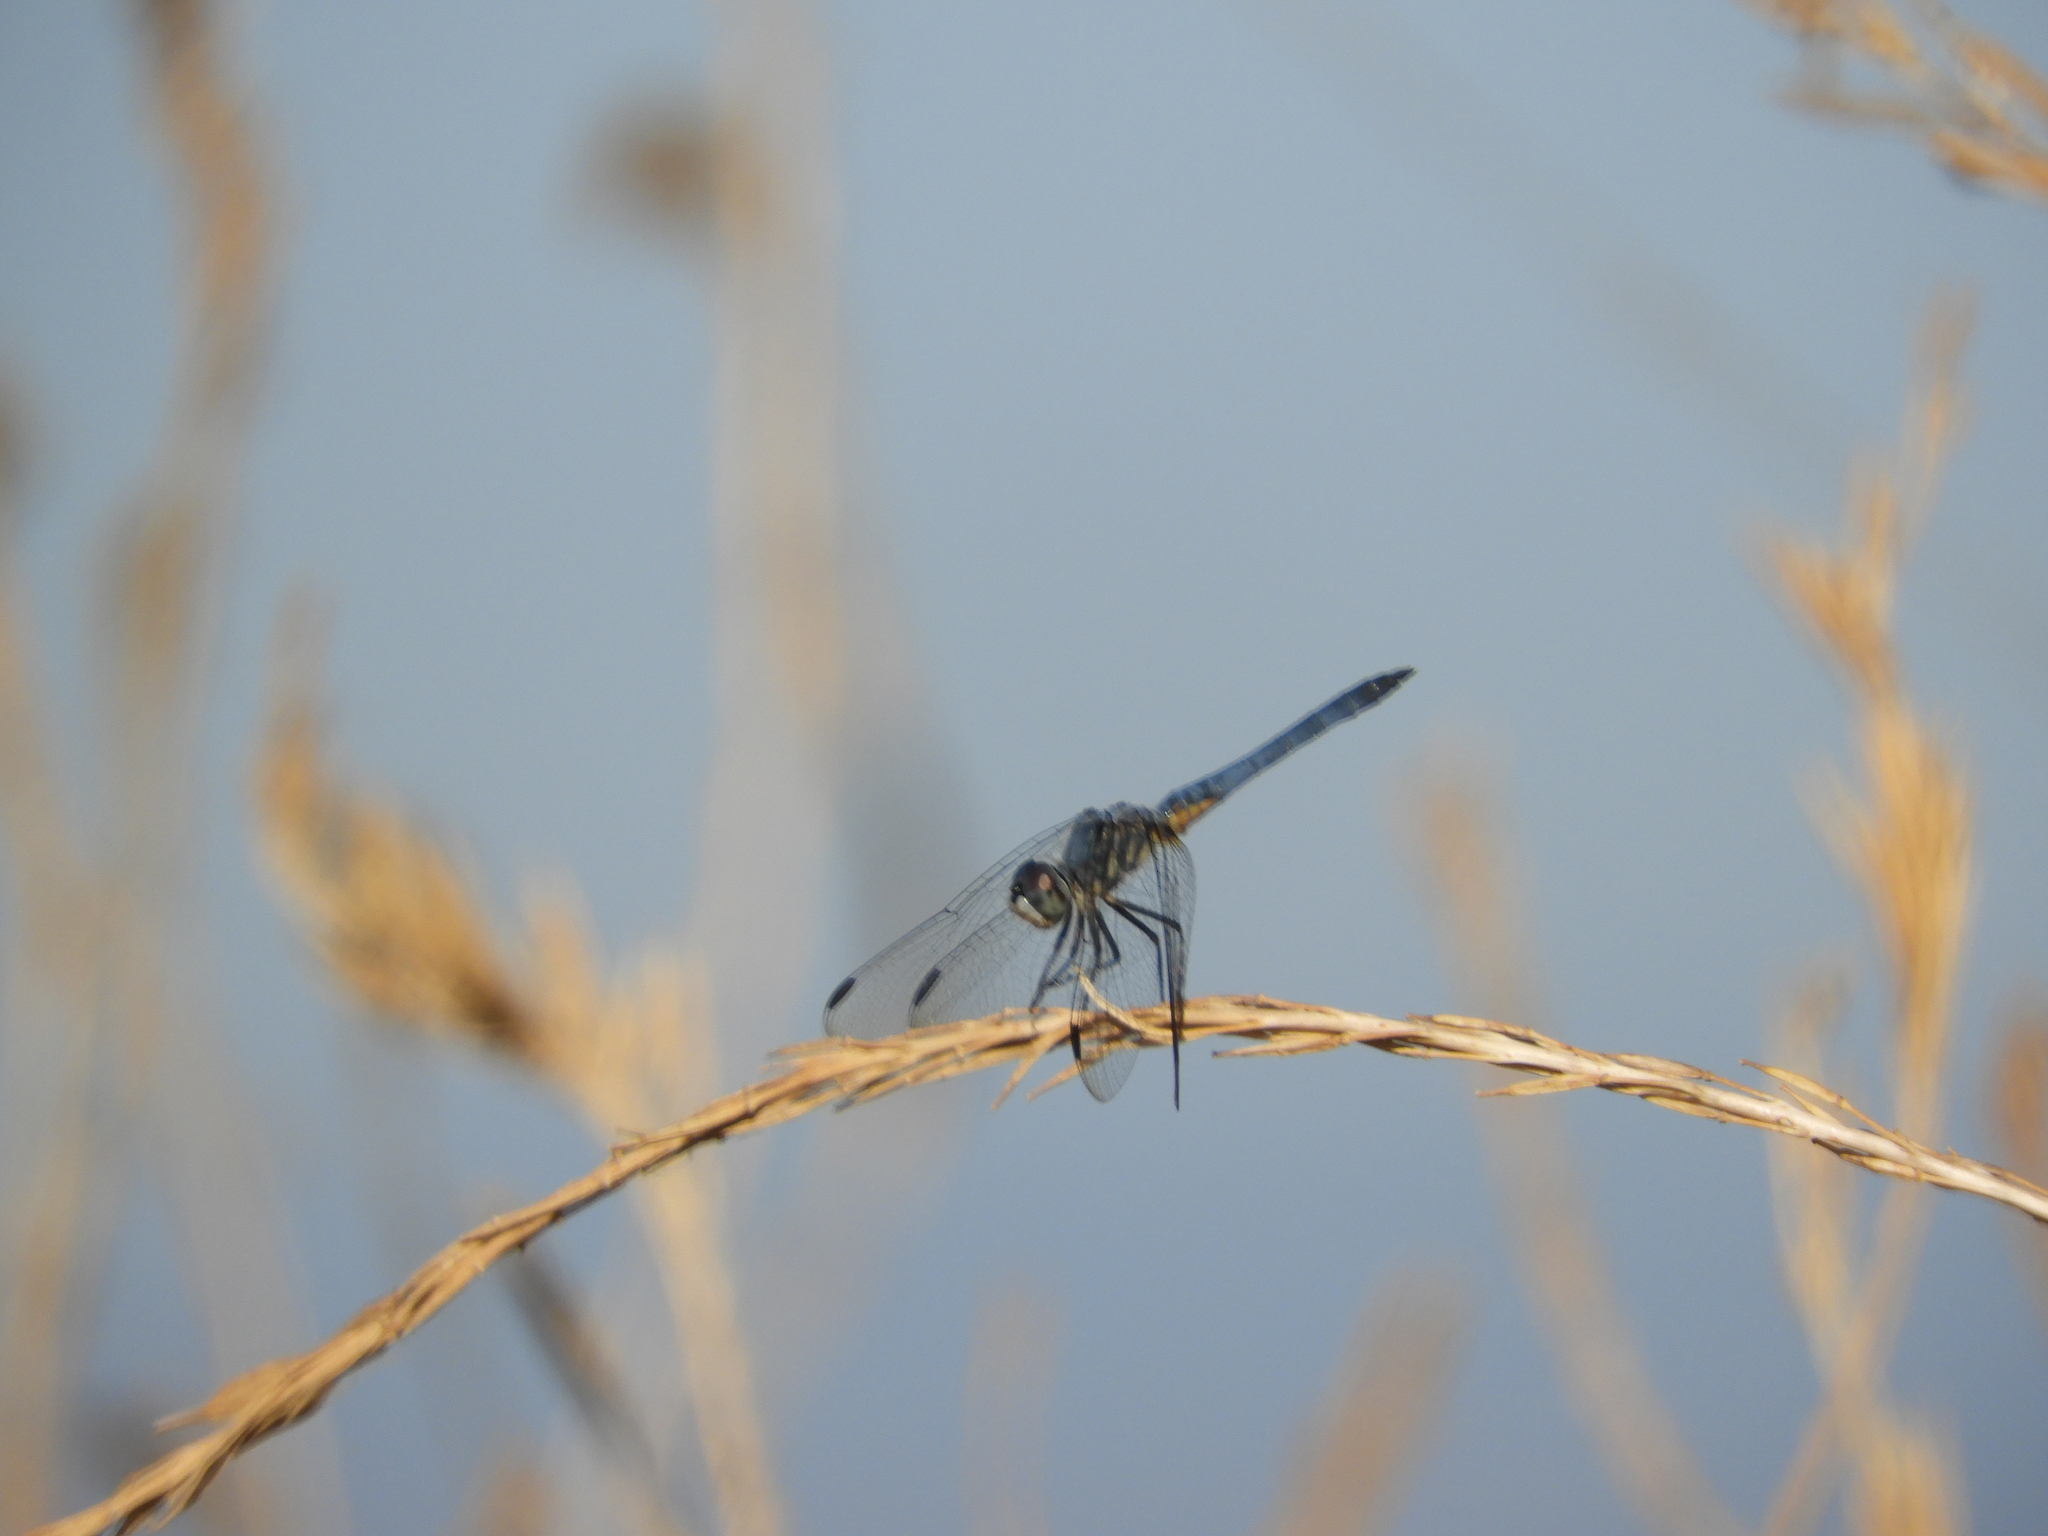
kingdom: Animalia
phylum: Arthropoda
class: Insecta
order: Odonata
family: Libellulidae
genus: Pachydiplax
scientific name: Pachydiplax longipennis
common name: Blue dasher
